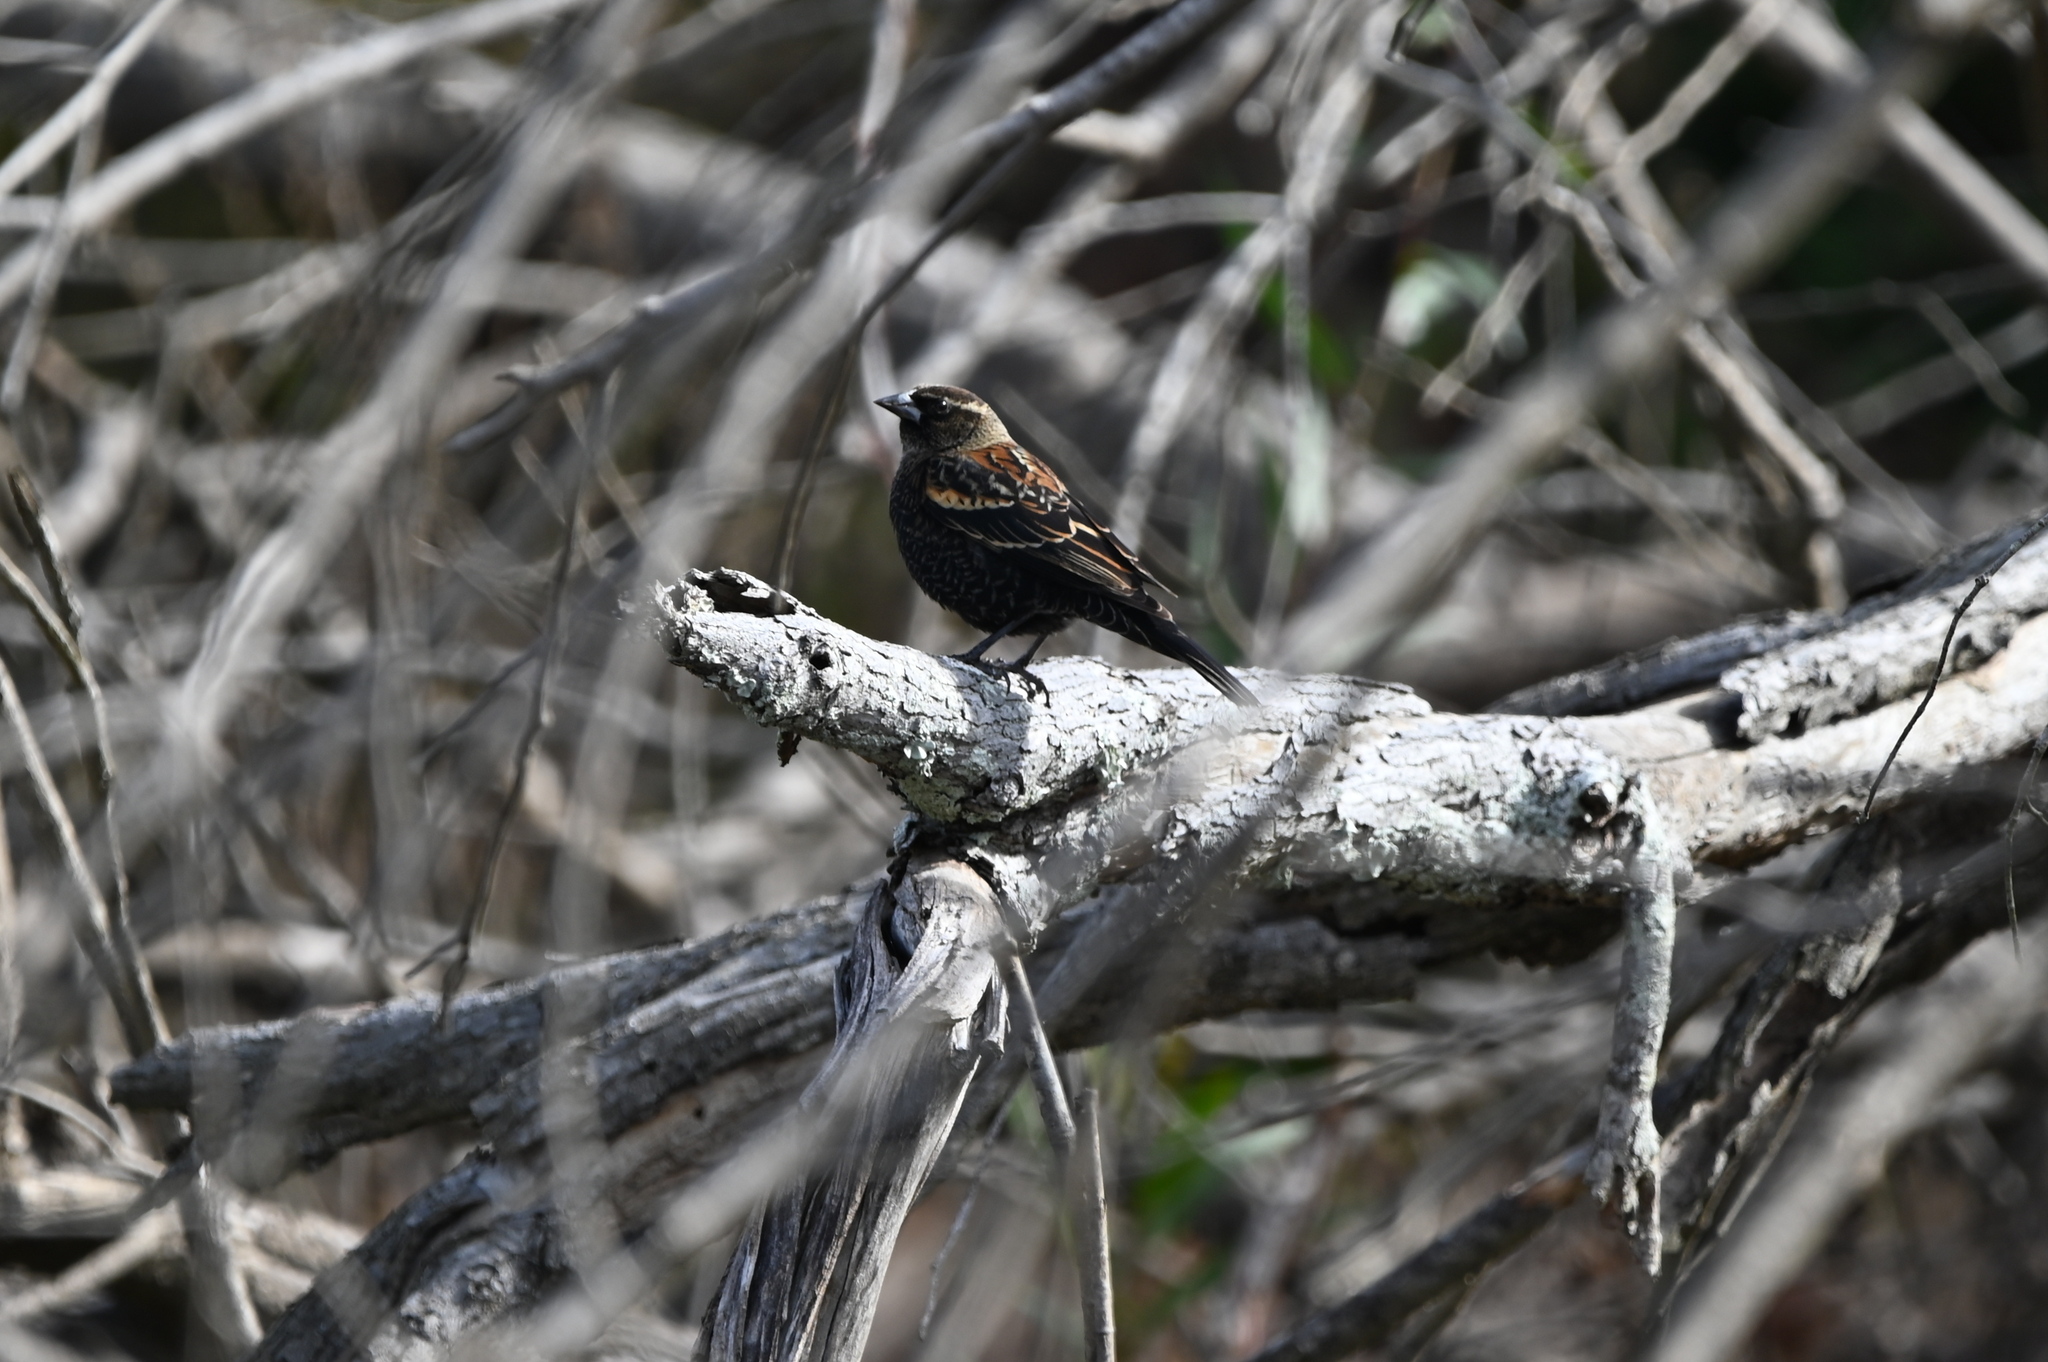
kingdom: Animalia
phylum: Chordata
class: Aves
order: Passeriformes
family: Icteridae
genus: Agelaius
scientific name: Agelaius phoeniceus
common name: Red-winged blackbird
